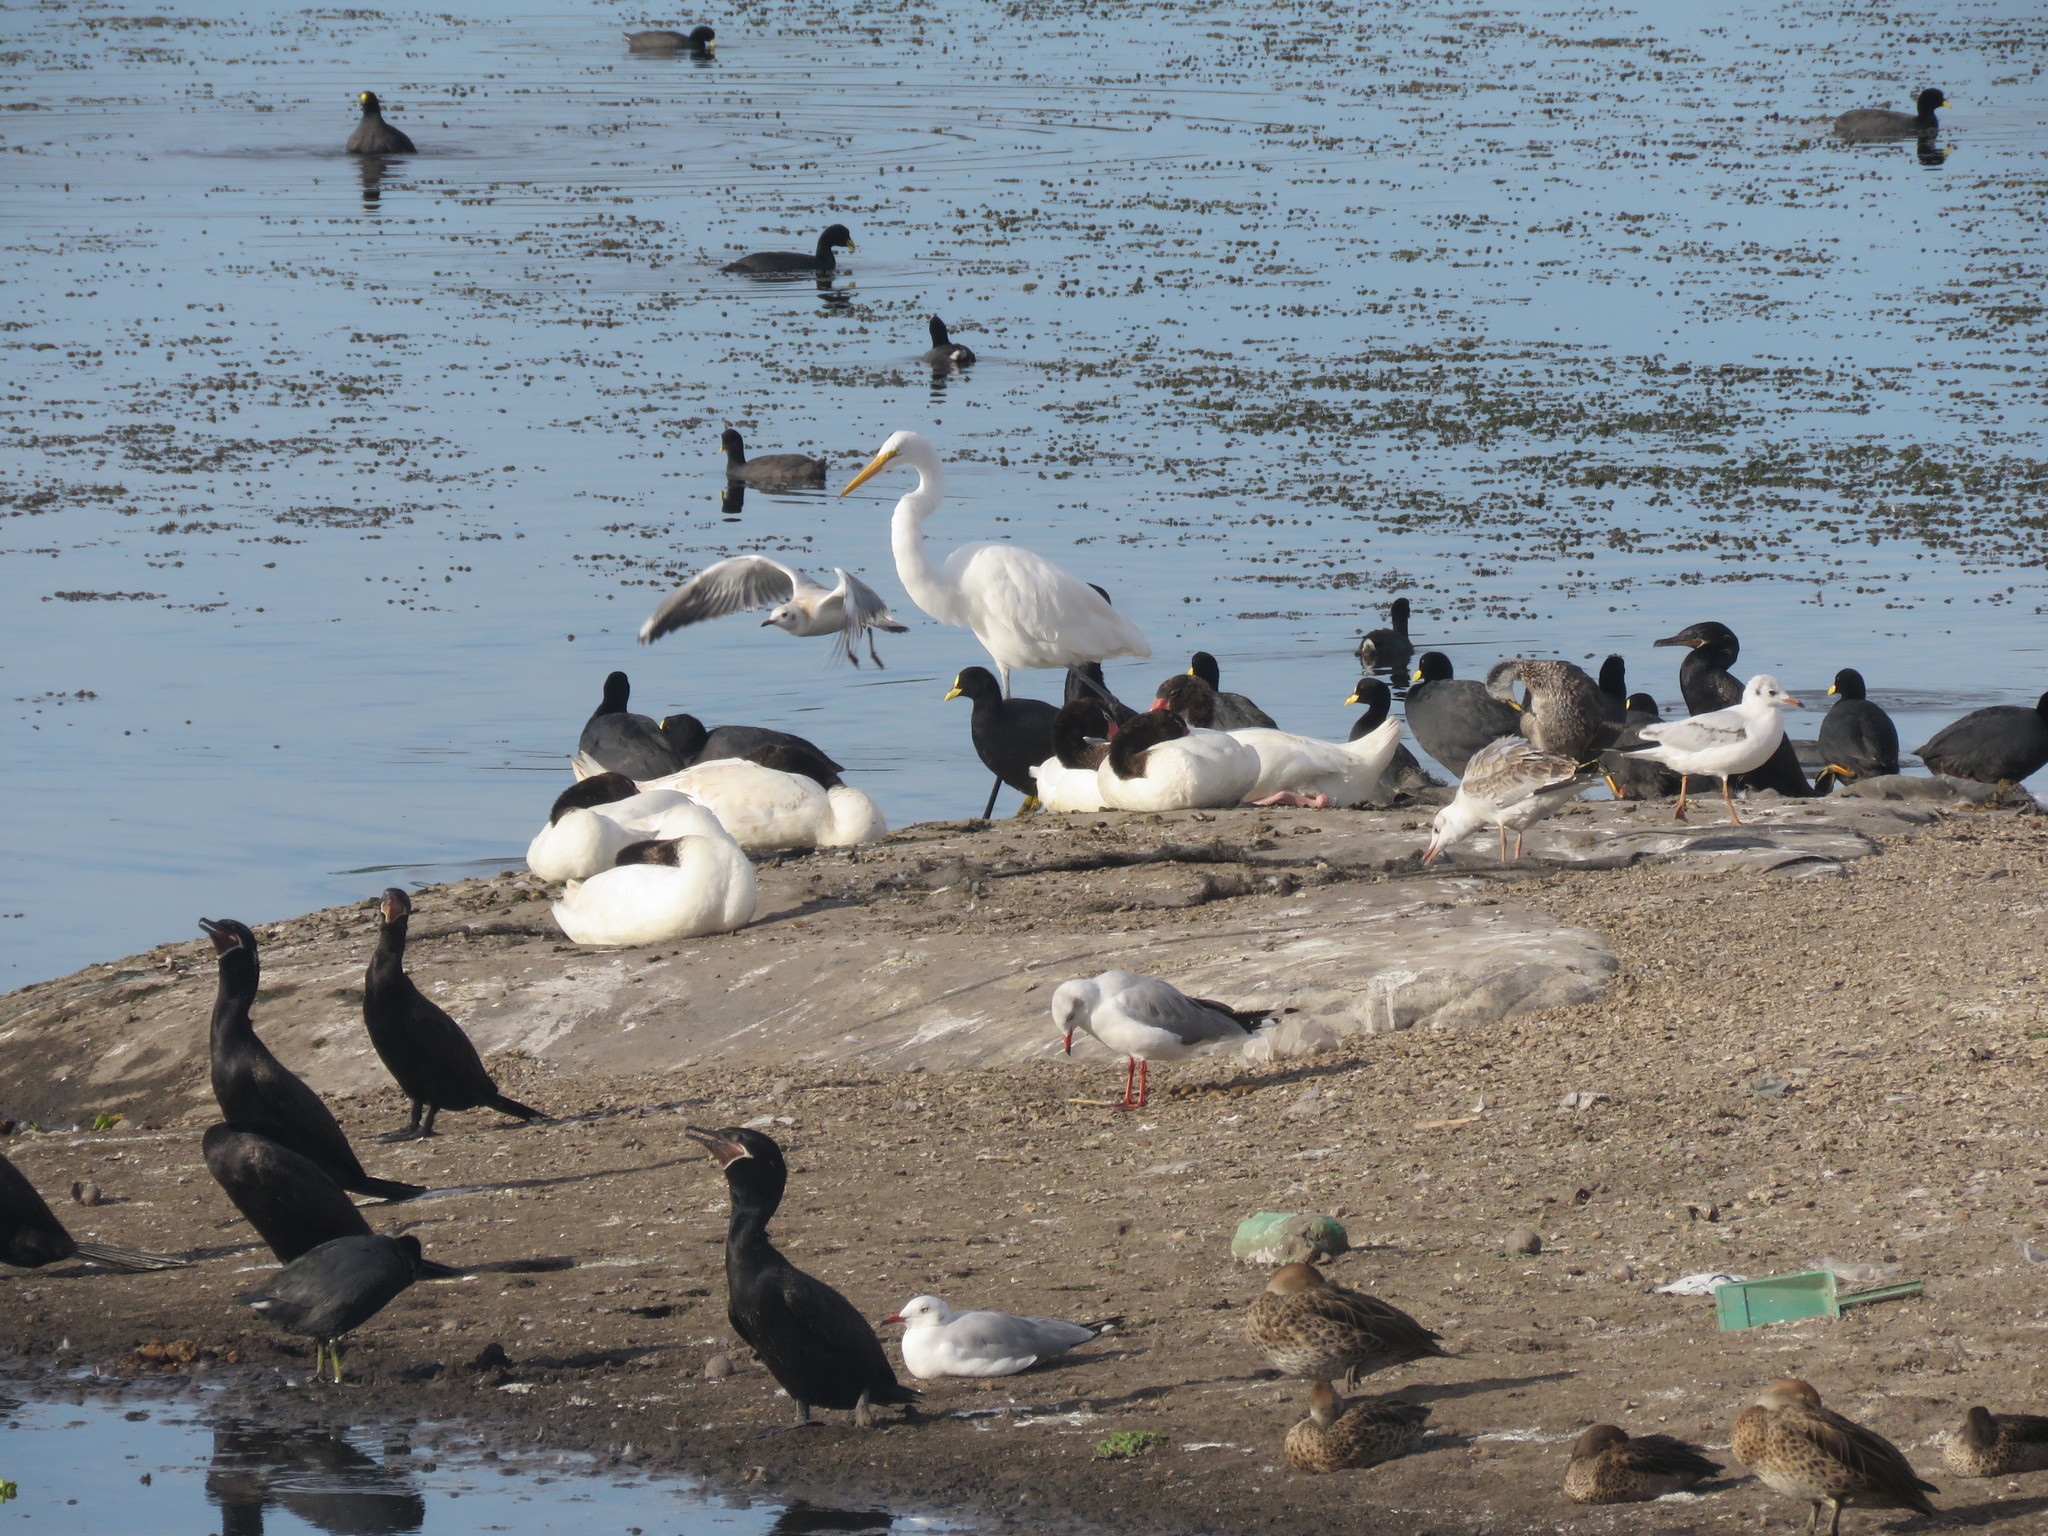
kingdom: Animalia
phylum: Chordata
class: Aves
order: Suliformes
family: Phalacrocoracidae
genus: Phalacrocorax
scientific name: Phalacrocorax brasilianus
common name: Neotropic cormorant
